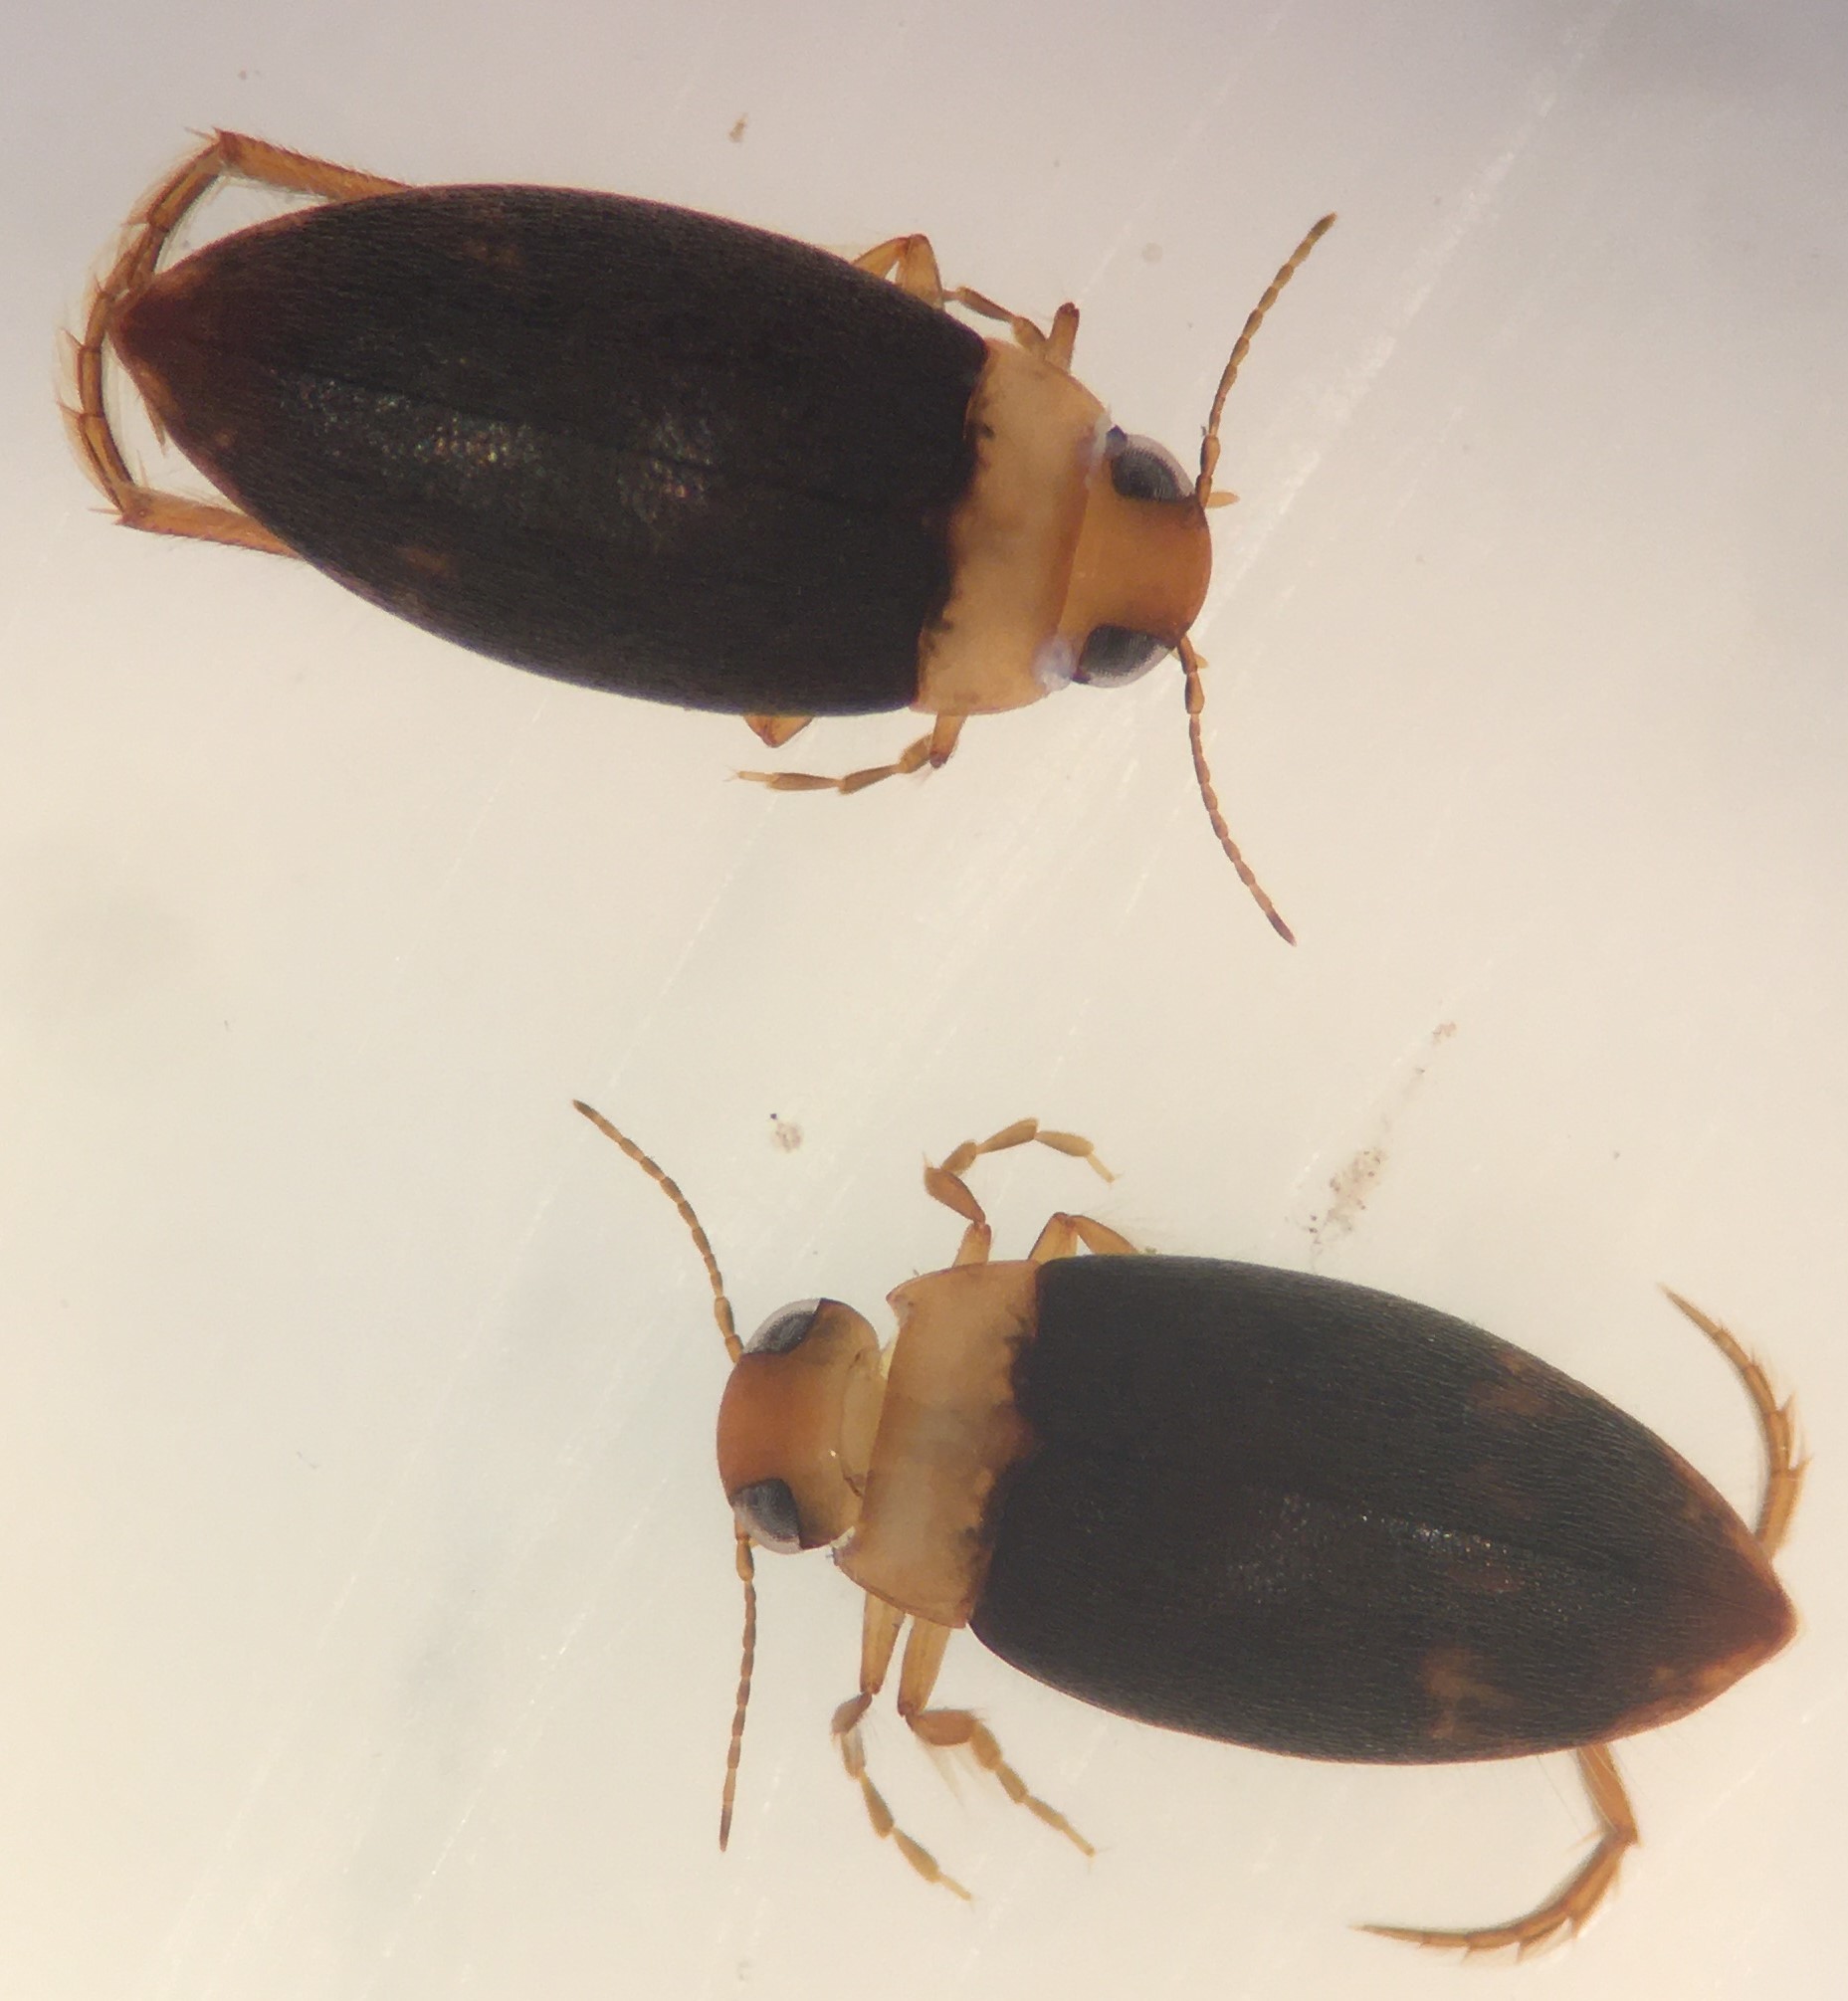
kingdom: Animalia
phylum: Arthropoda
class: Insecta
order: Coleoptera
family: Dytiscidae
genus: Derovatellus
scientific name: Derovatellus floridanus
